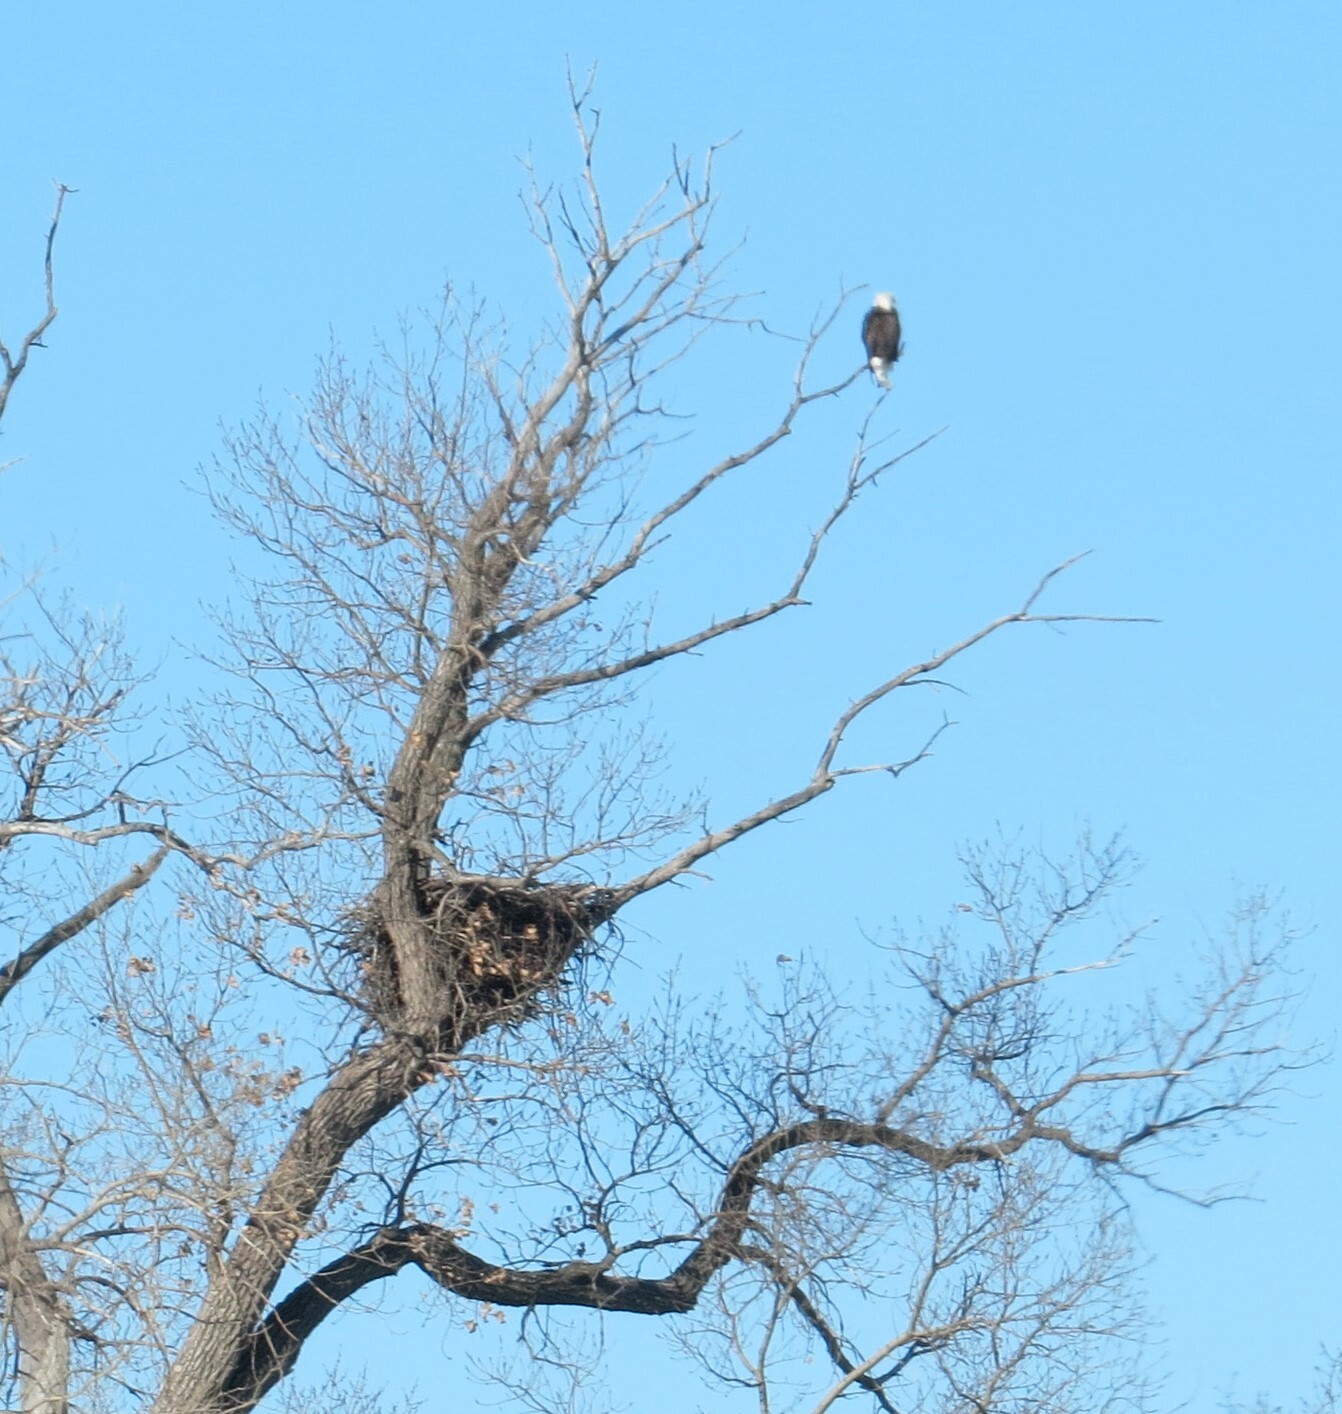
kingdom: Animalia
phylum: Chordata
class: Aves
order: Accipitriformes
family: Accipitridae
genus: Haliaeetus
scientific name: Haliaeetus leucocephalus
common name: Bald eagle
